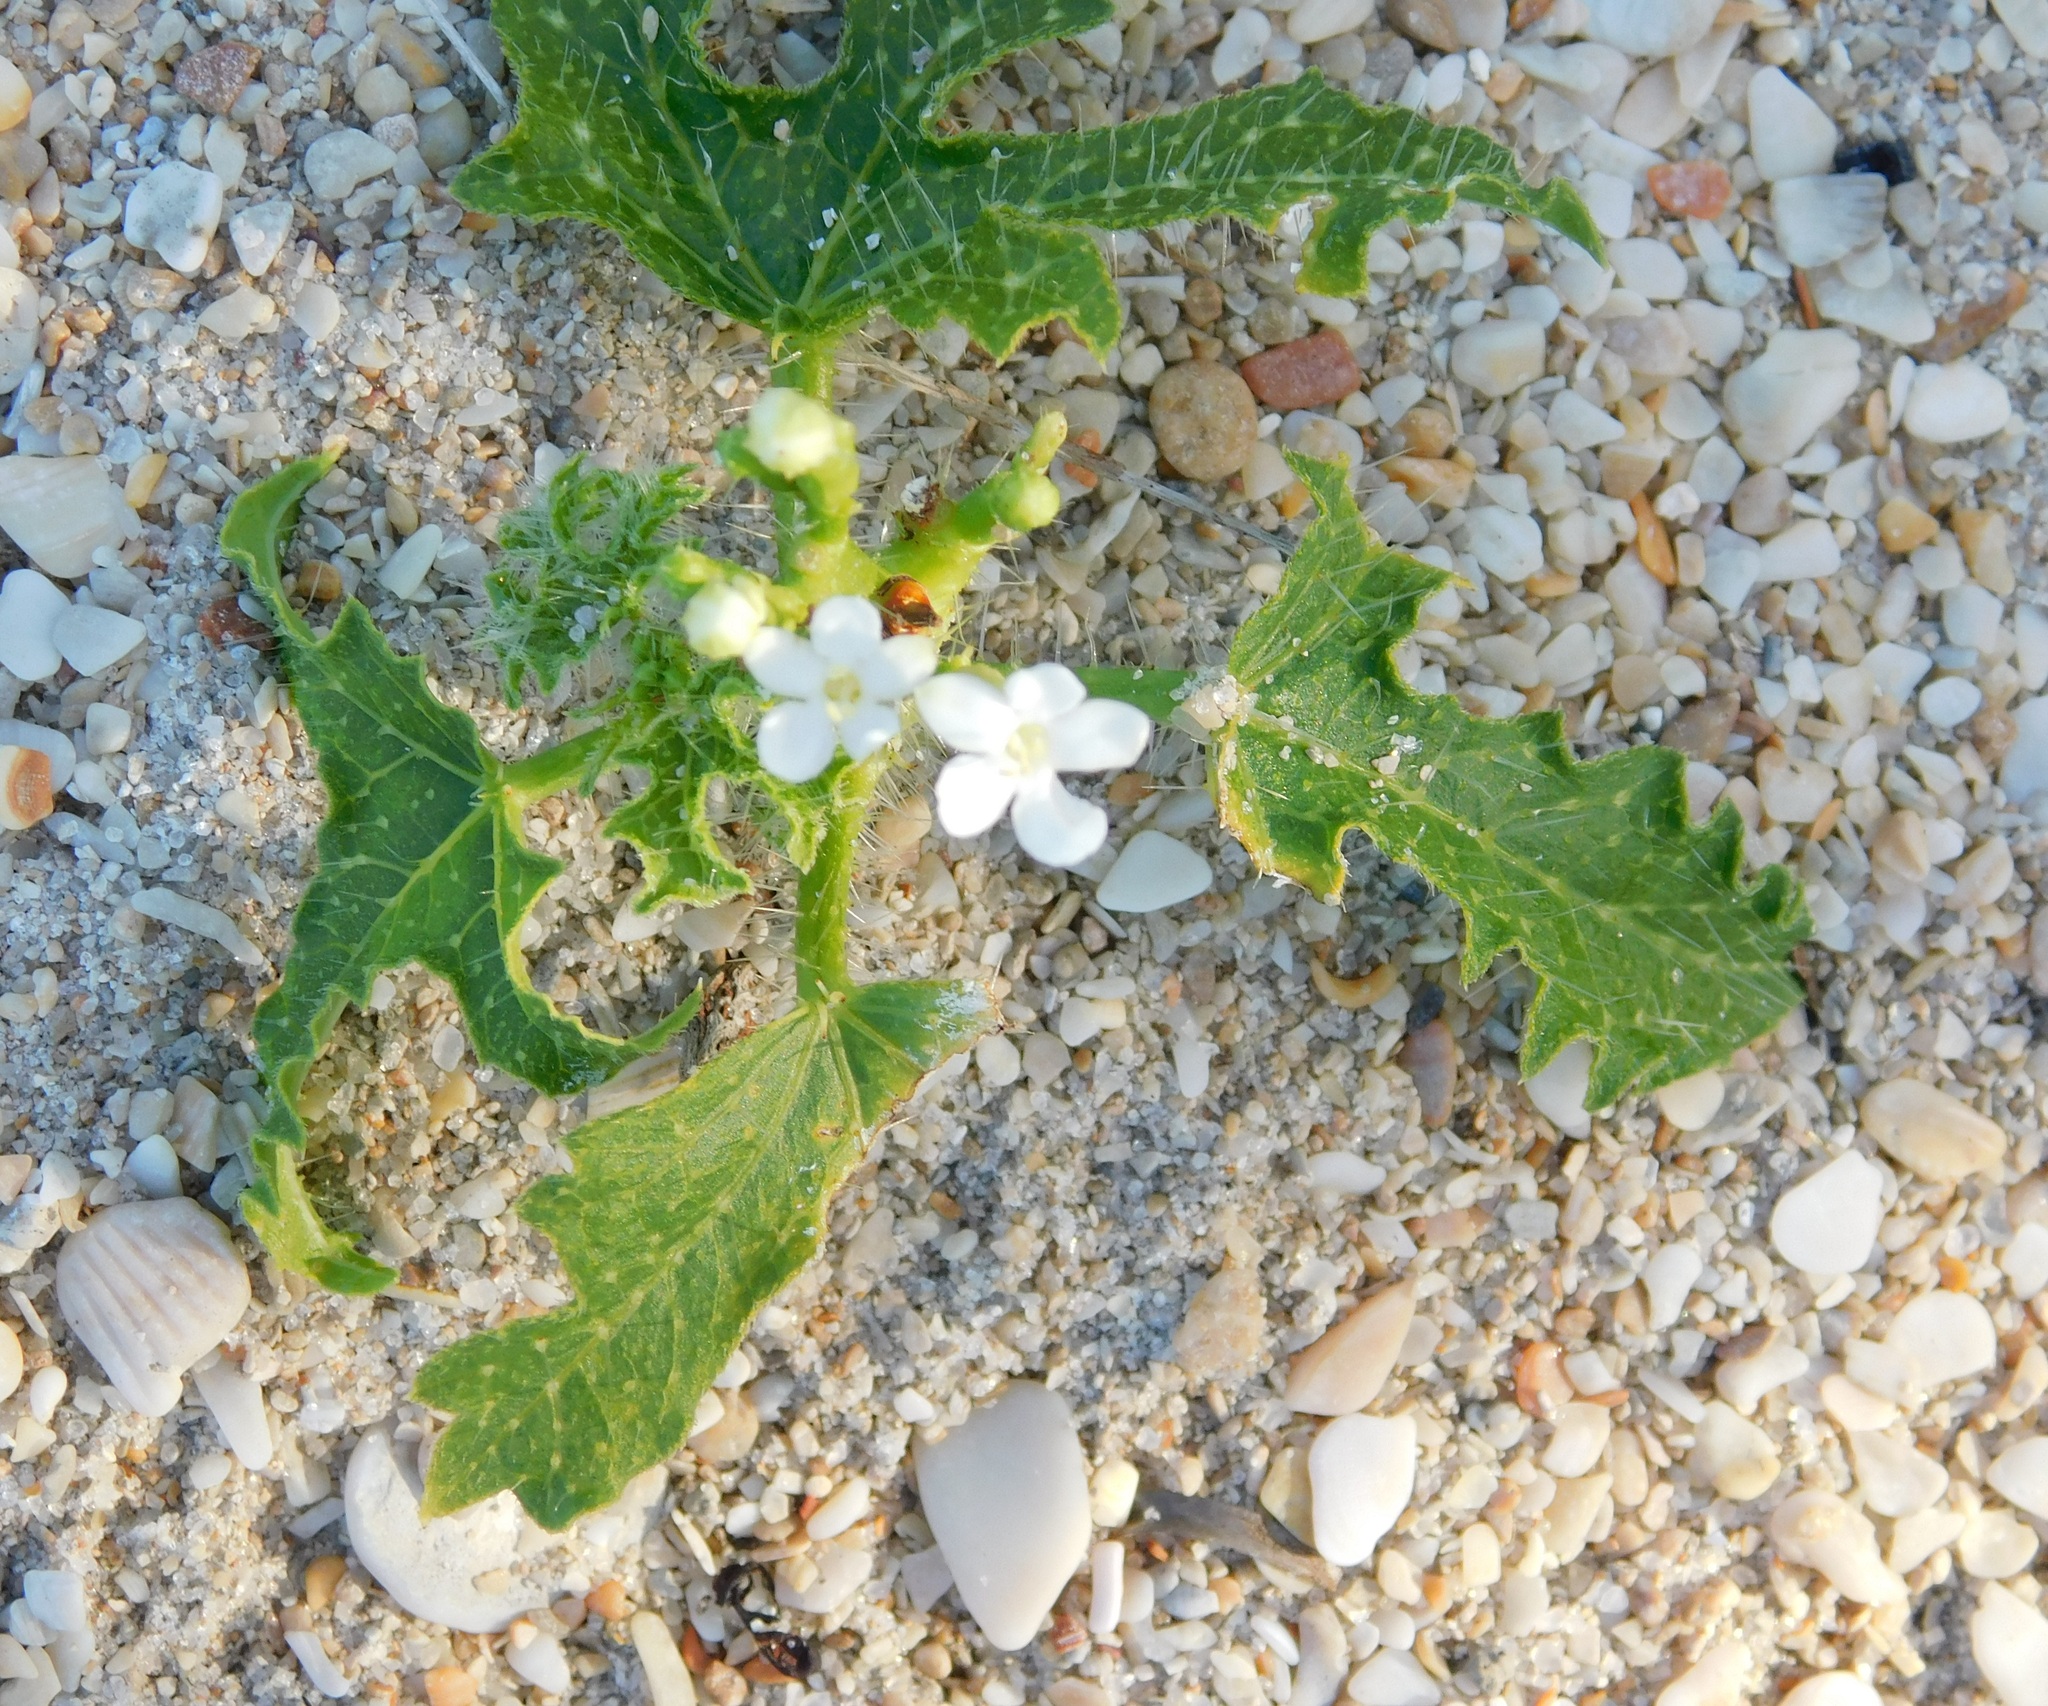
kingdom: Plantae
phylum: Tracheophyta
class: Magnoliopsida
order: Malpighiales
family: Euphorbiaceae
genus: Cnidoscolus
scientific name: Cnidoscolus stimulosus
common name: Bull-nettle
